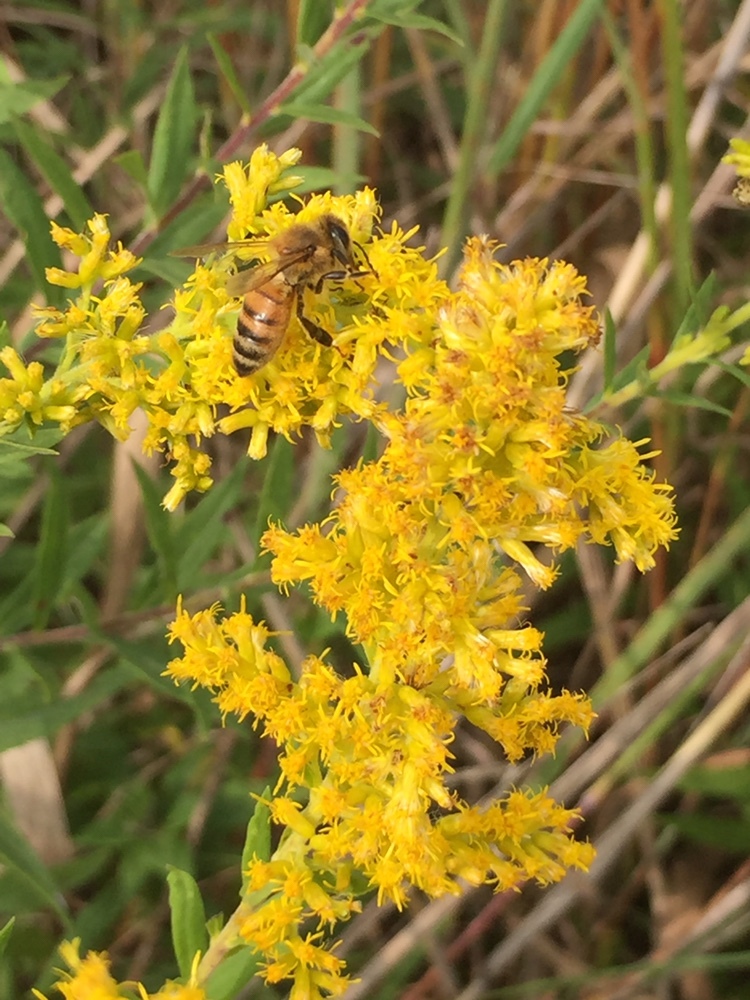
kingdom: Animalia
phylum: Arthropoda
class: Insecta
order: Hymenoptera
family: Apidae
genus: Apis
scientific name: Apis mellifera
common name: Honey bee
